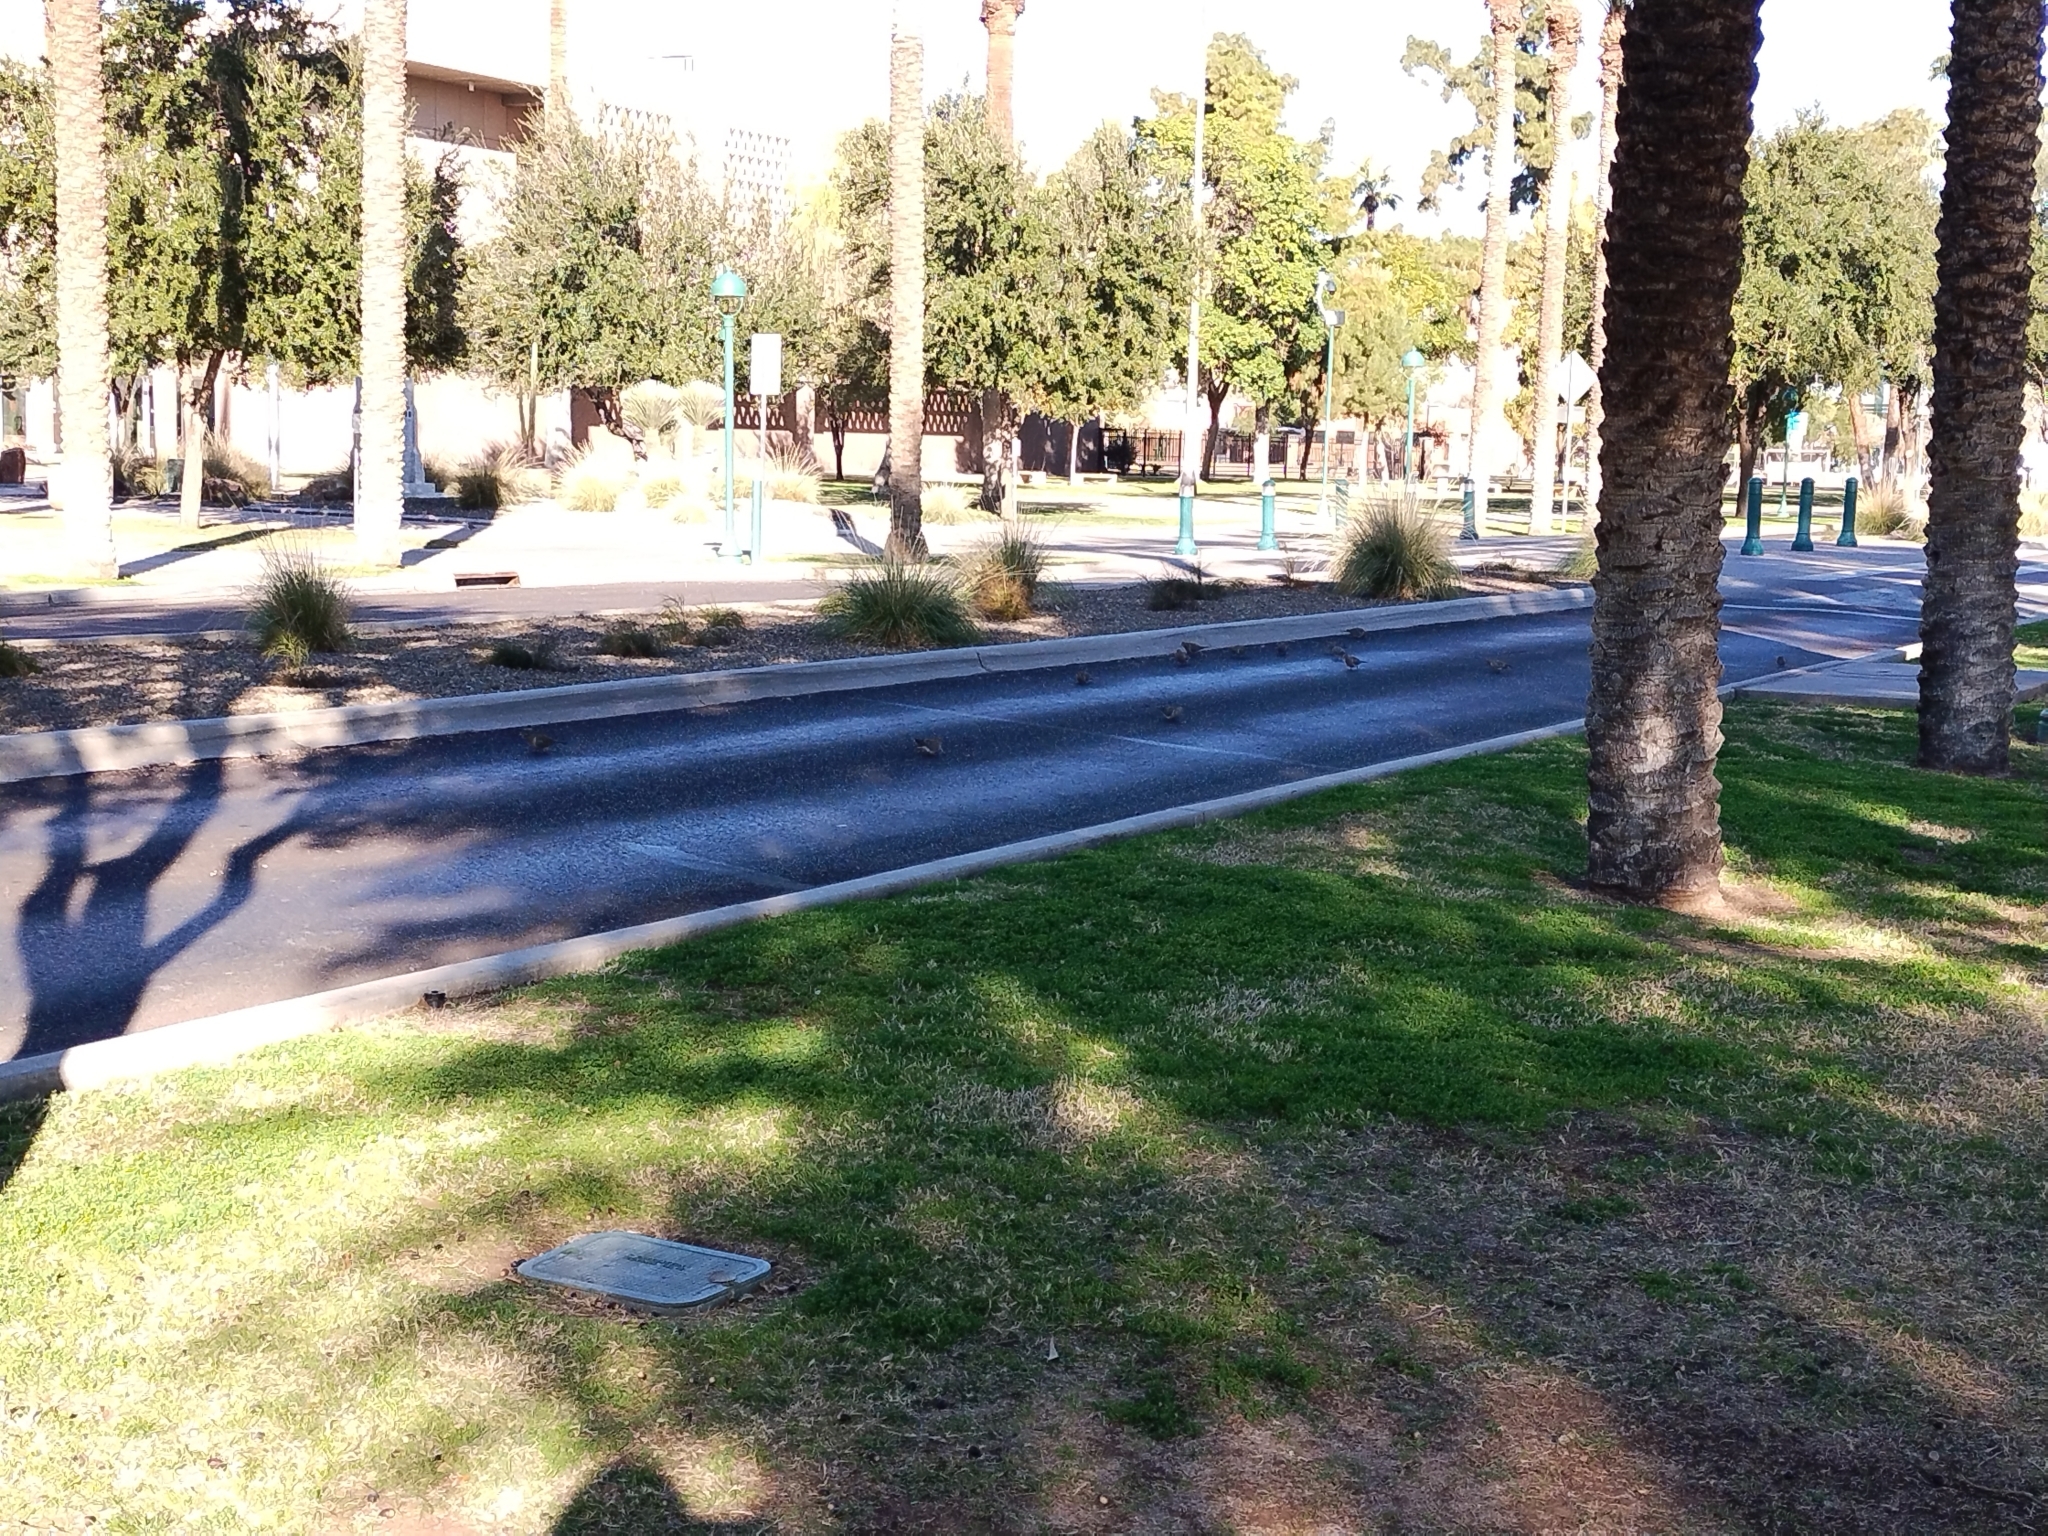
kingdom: Animalia
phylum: Chordata
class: Aves
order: Columbiformes
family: Columbidae
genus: Zenaida
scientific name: Zenaida macroura
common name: Mourning dove
